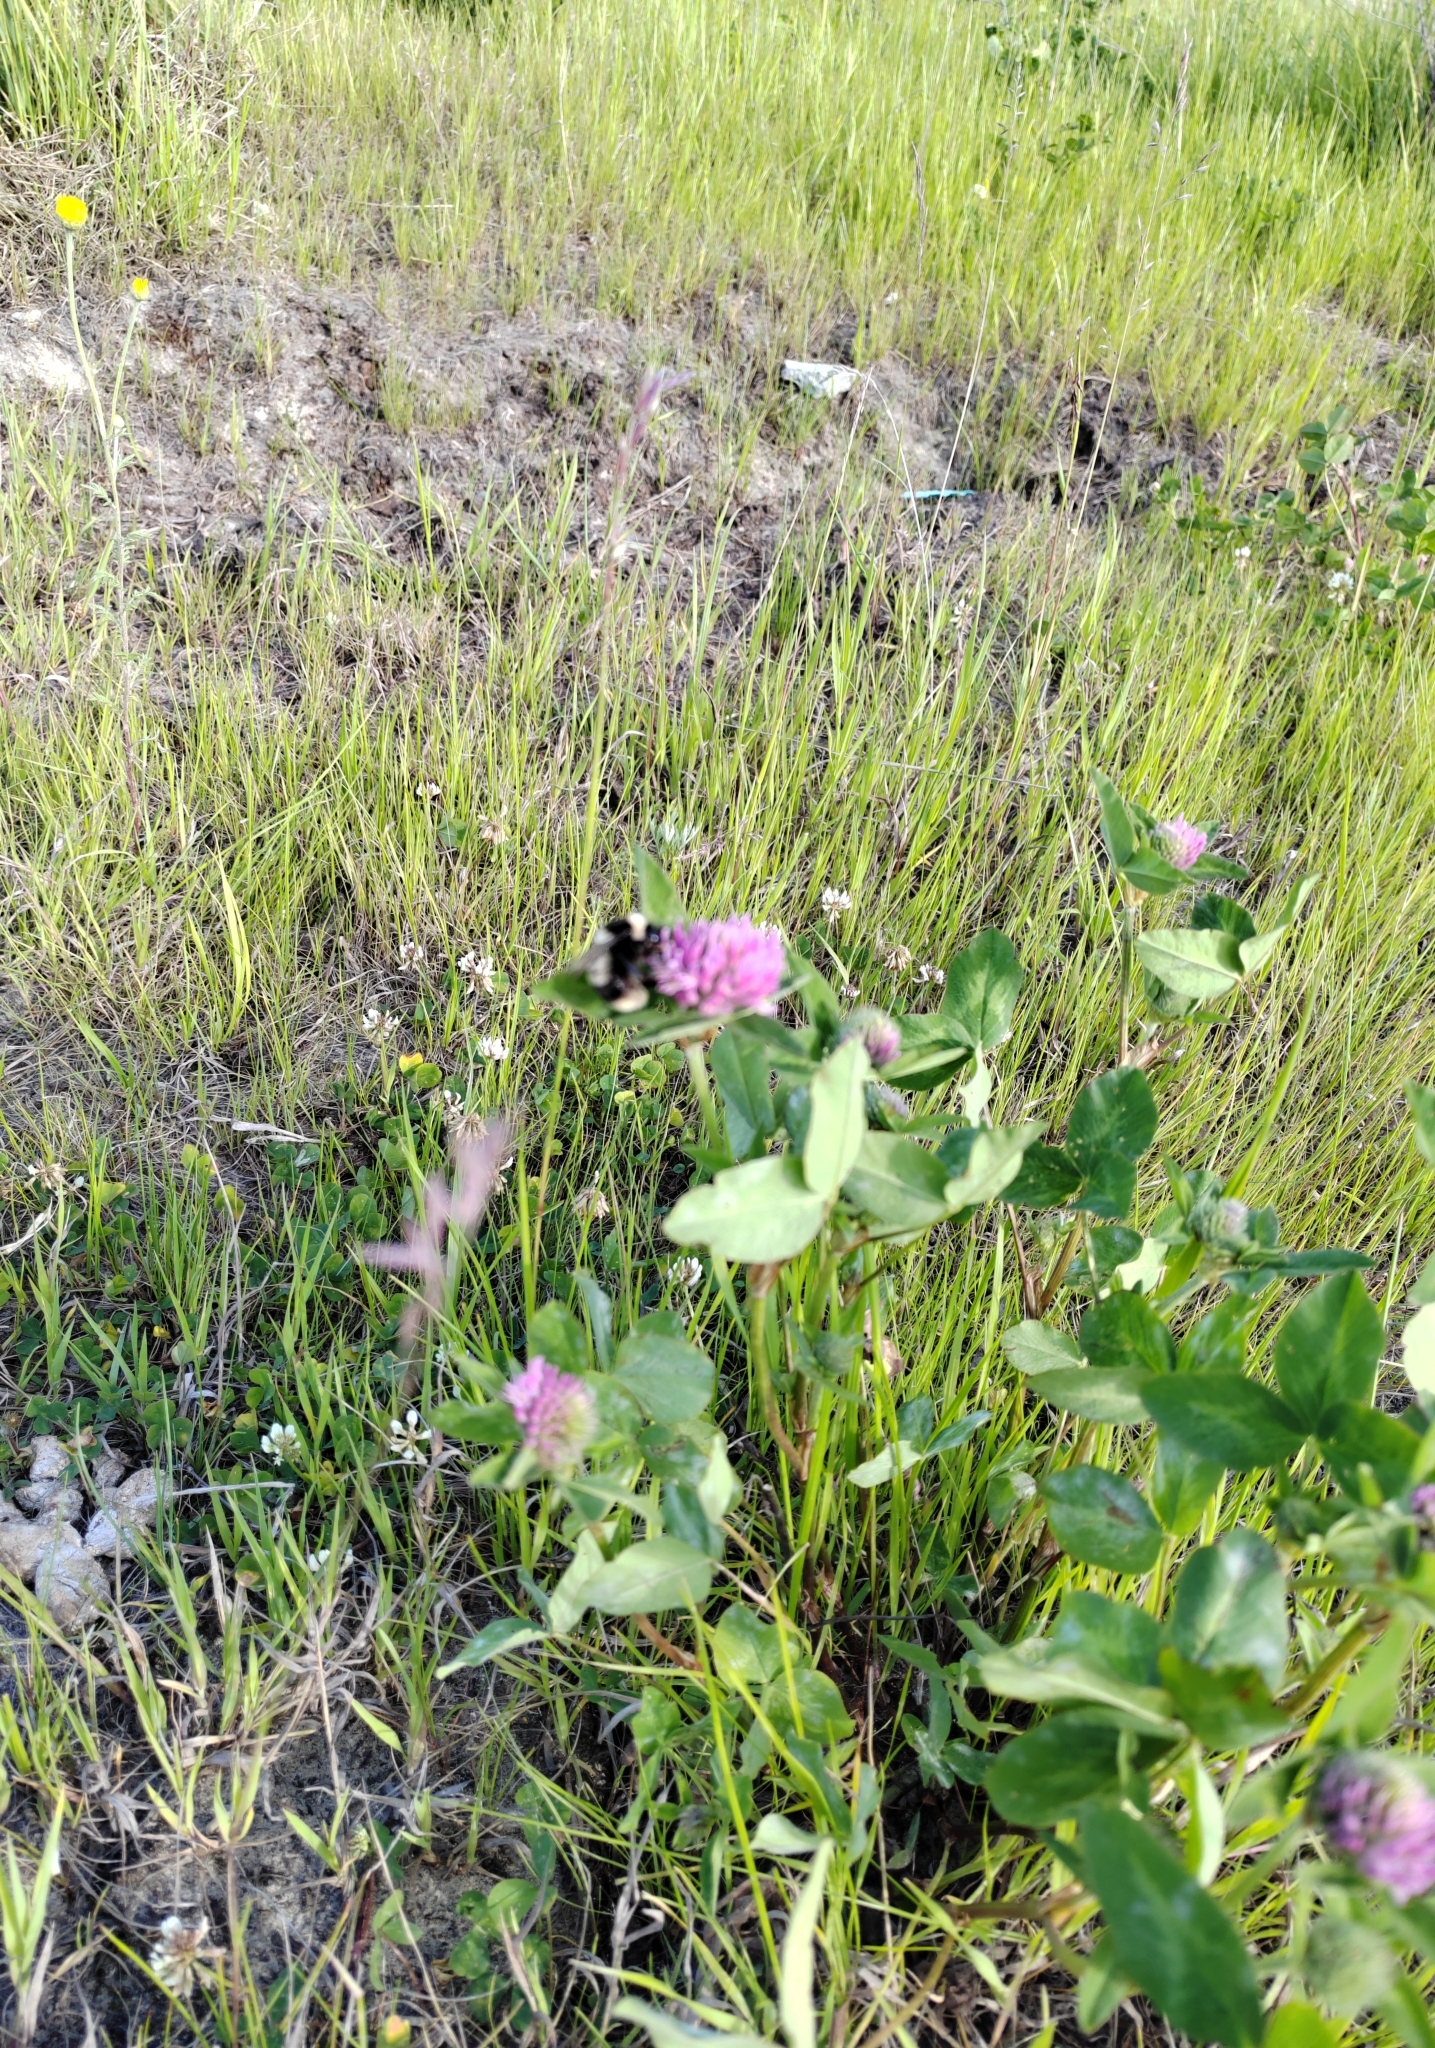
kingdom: Plantae
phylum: Tracheophyta
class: Magnoliopsida
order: Fabales
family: Fabaceae
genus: Trifolium
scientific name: Trifolium pratense
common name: Red clover
